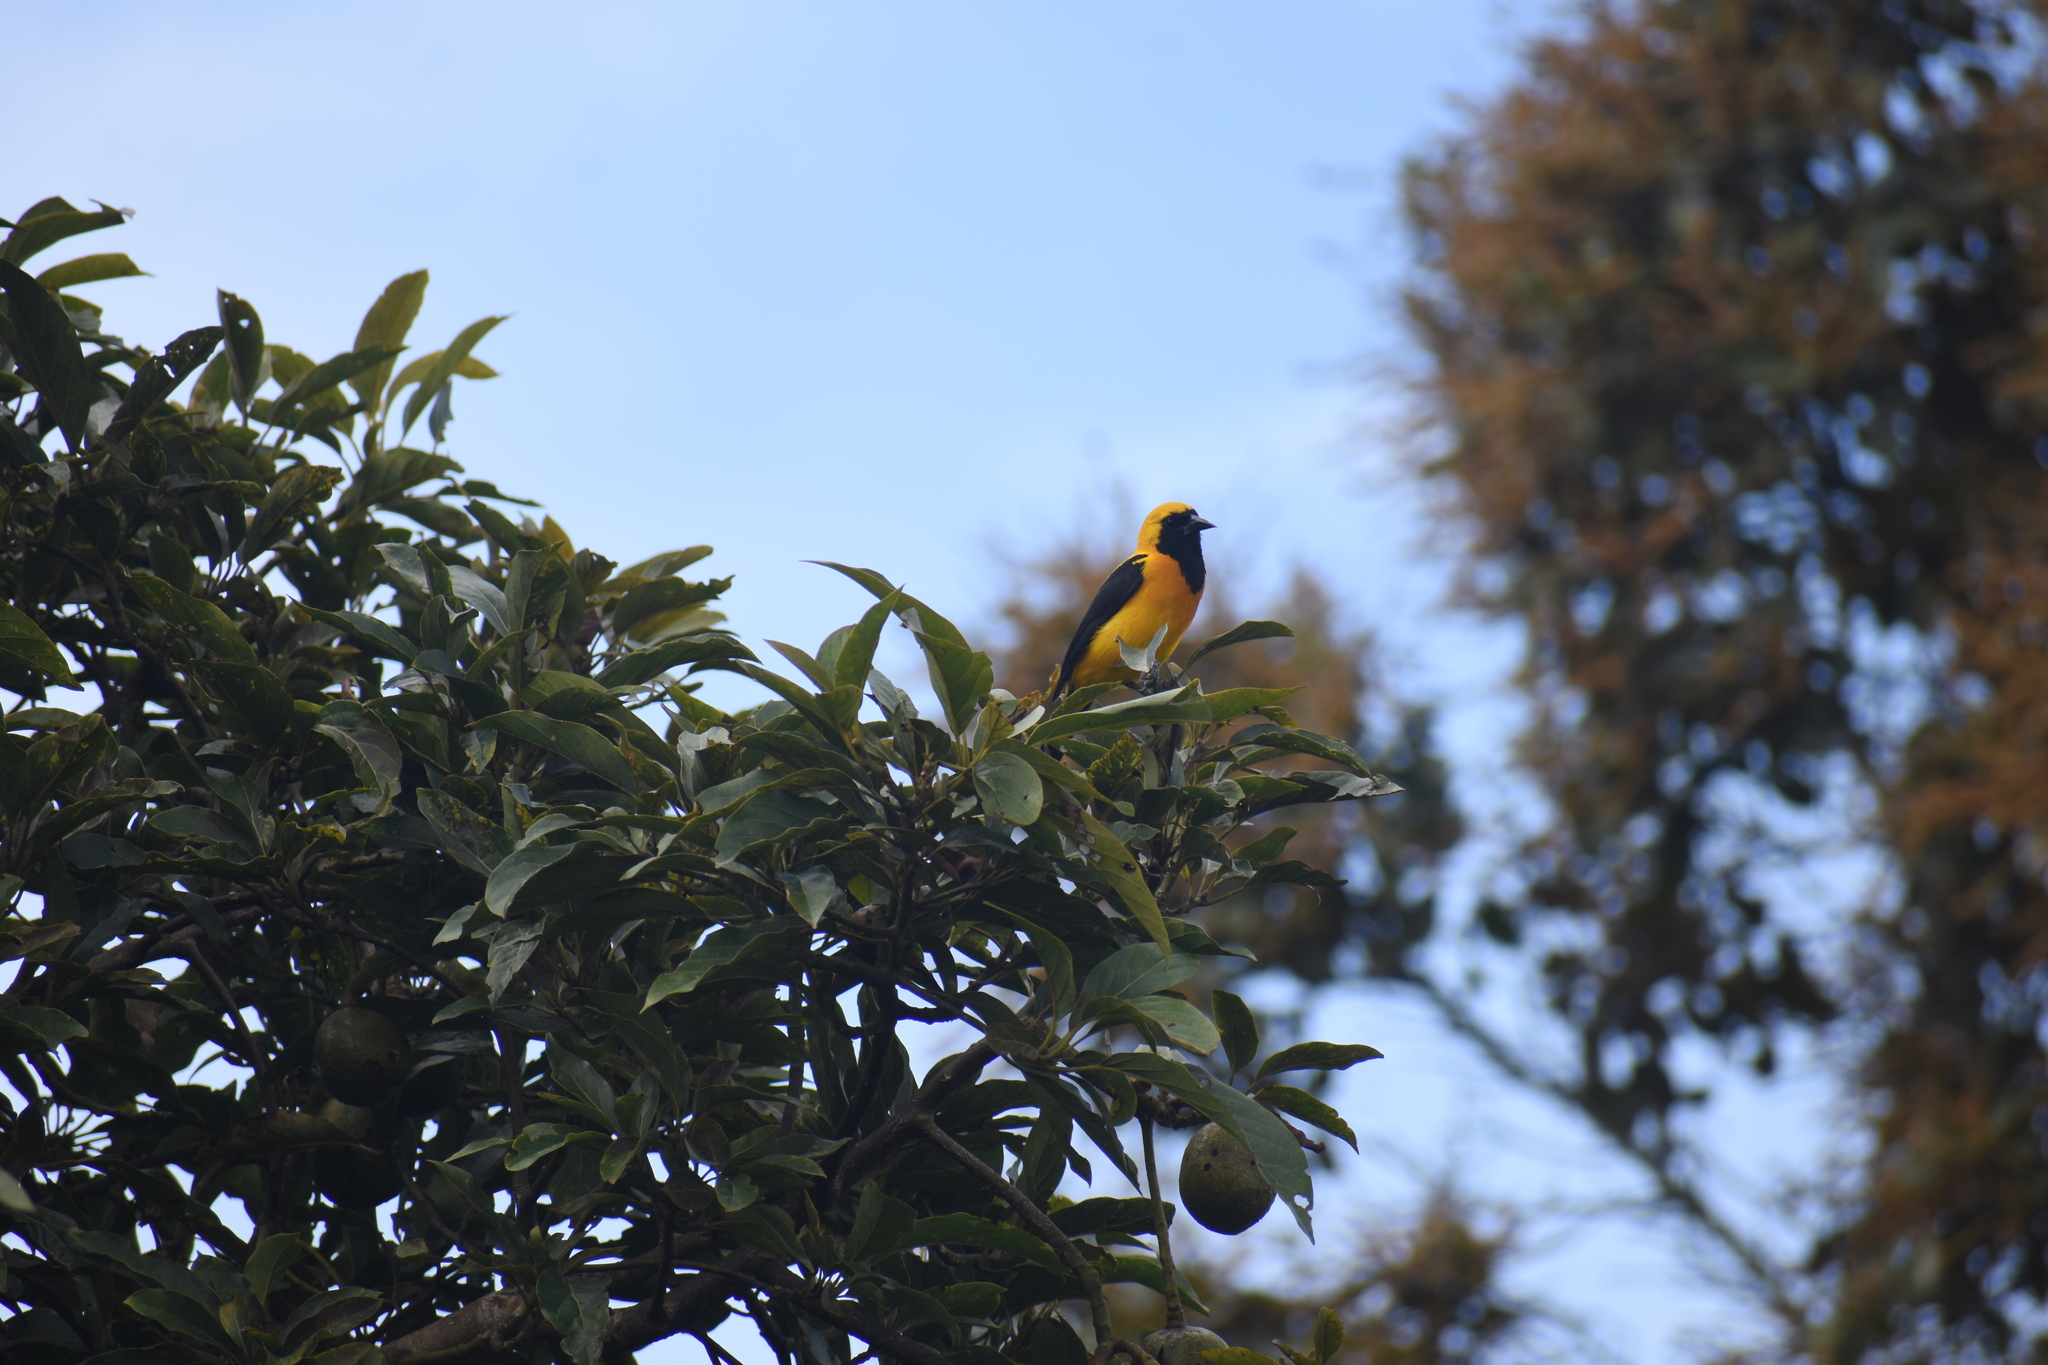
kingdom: Animalia
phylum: Chordata
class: Aves
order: Passeriformes
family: Icteridae
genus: Icterus
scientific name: Icterus chrysater
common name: Yellow-backed oriole
